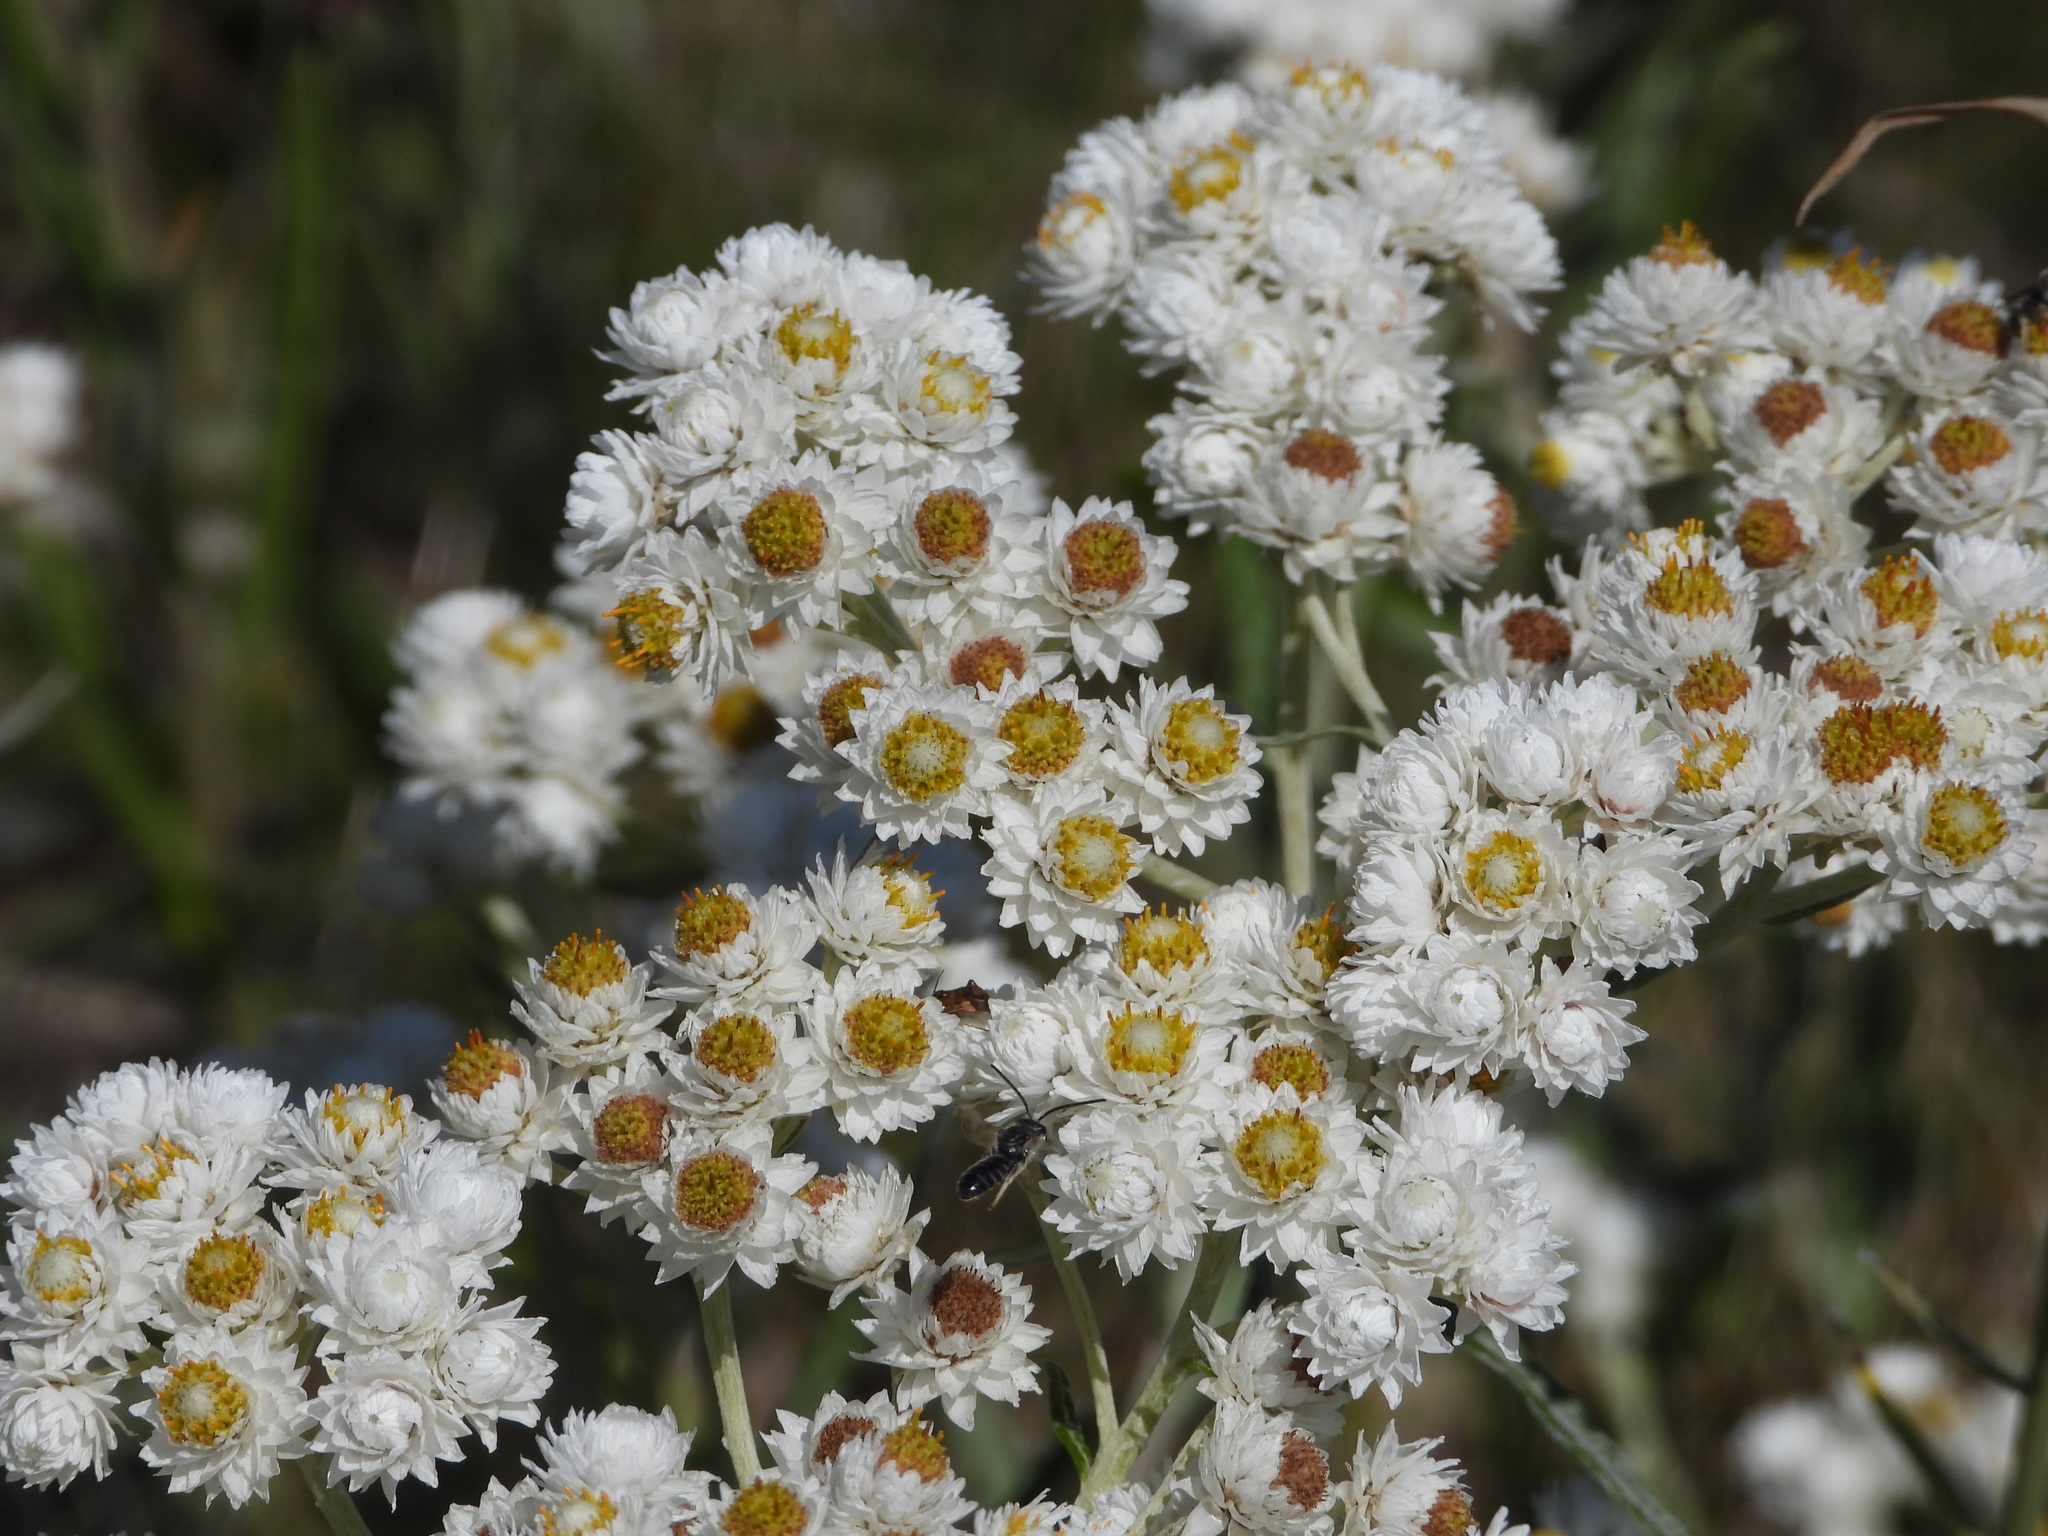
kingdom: Plantae
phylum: Tracheophyta
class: Magnoliopsida
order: Asterales
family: Asteraceae
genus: Anaphalis
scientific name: Anaphalis margaritacea
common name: Pearly everlasting
